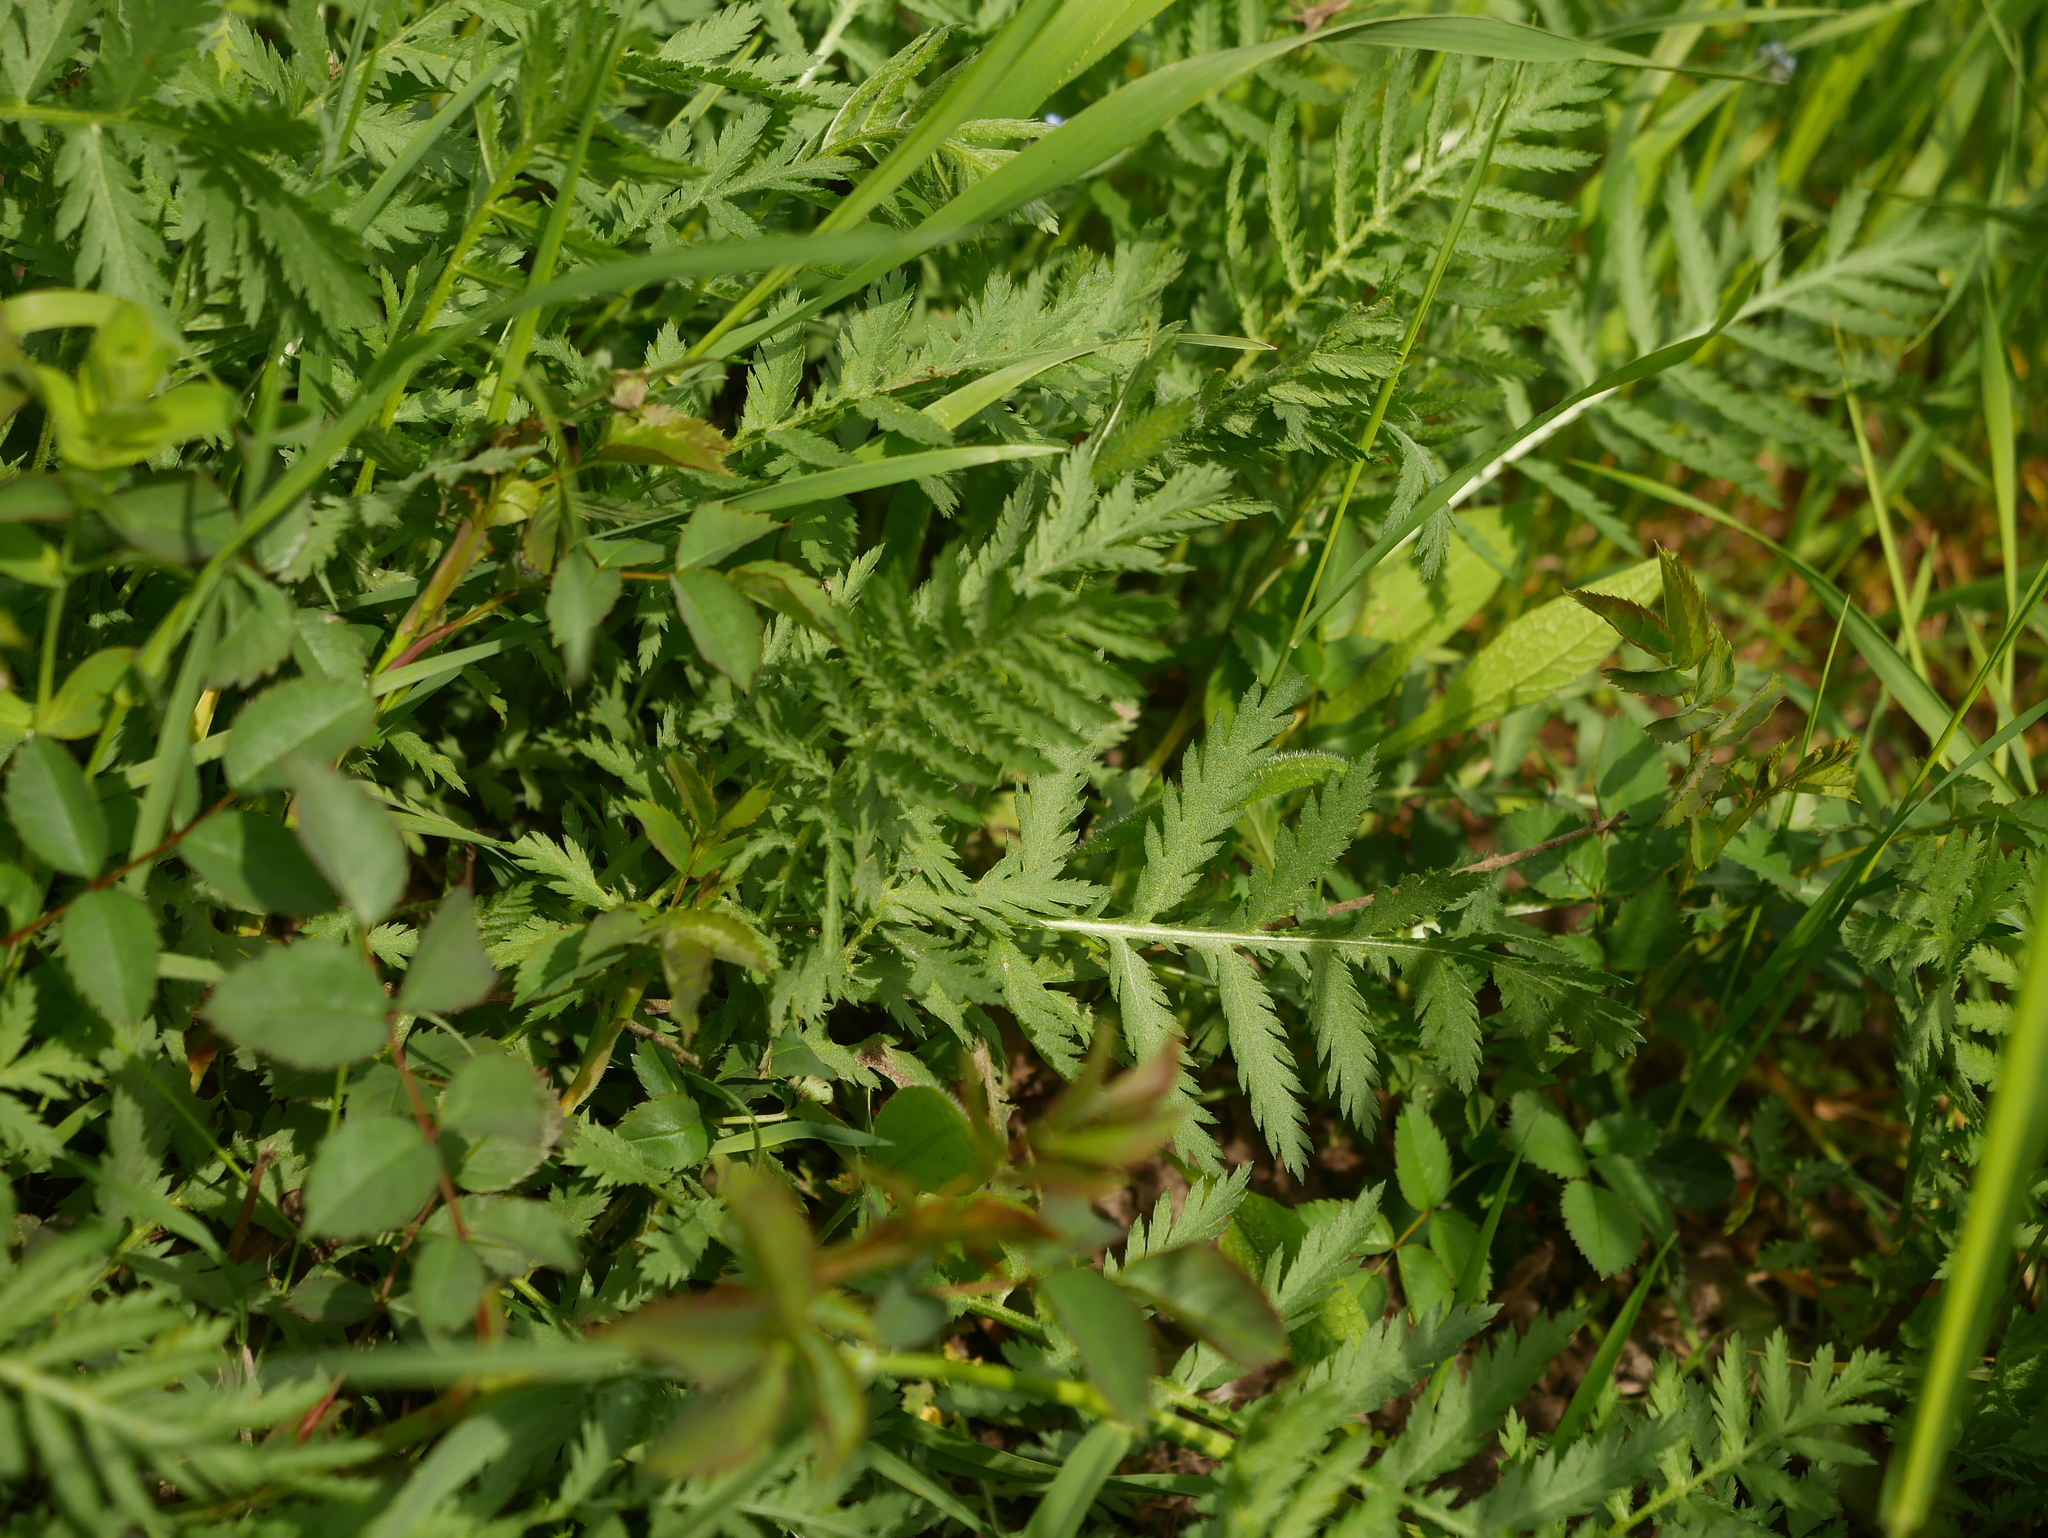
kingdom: Plantae
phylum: Tracheophyta
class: Magnoliopsida
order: Asterales
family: Asteraceae
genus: Tanacetum
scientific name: Tanacetum vulgare
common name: Common tansy
